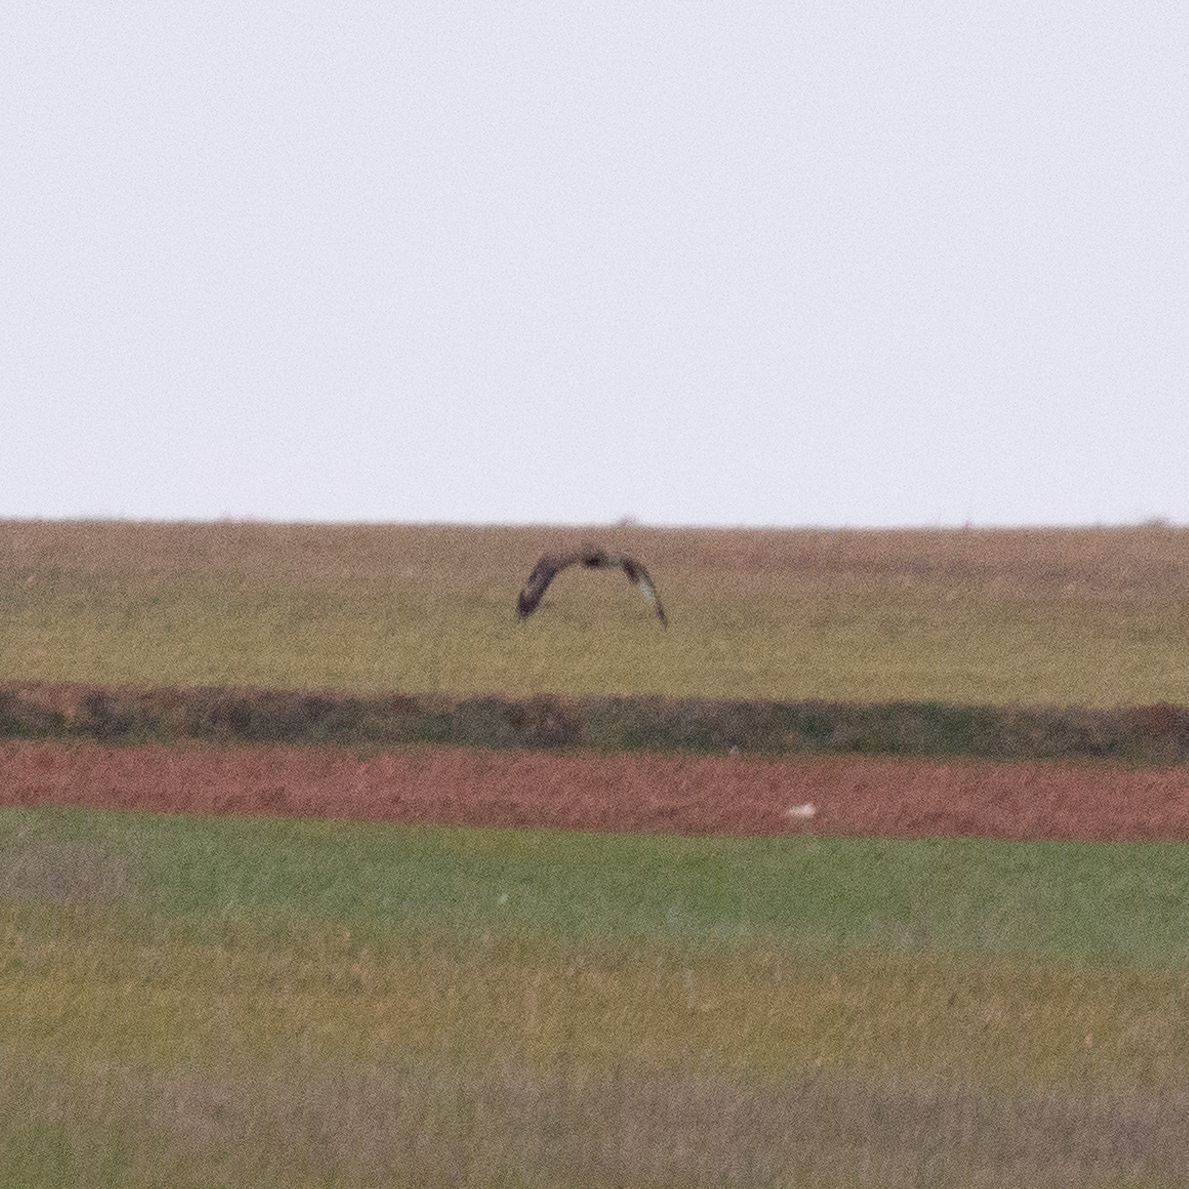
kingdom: Animalia
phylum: Chordata
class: Aves
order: Accipitriformes
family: Accipitridae
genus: Buteo
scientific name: Buteo buteo
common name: Common buzzard
